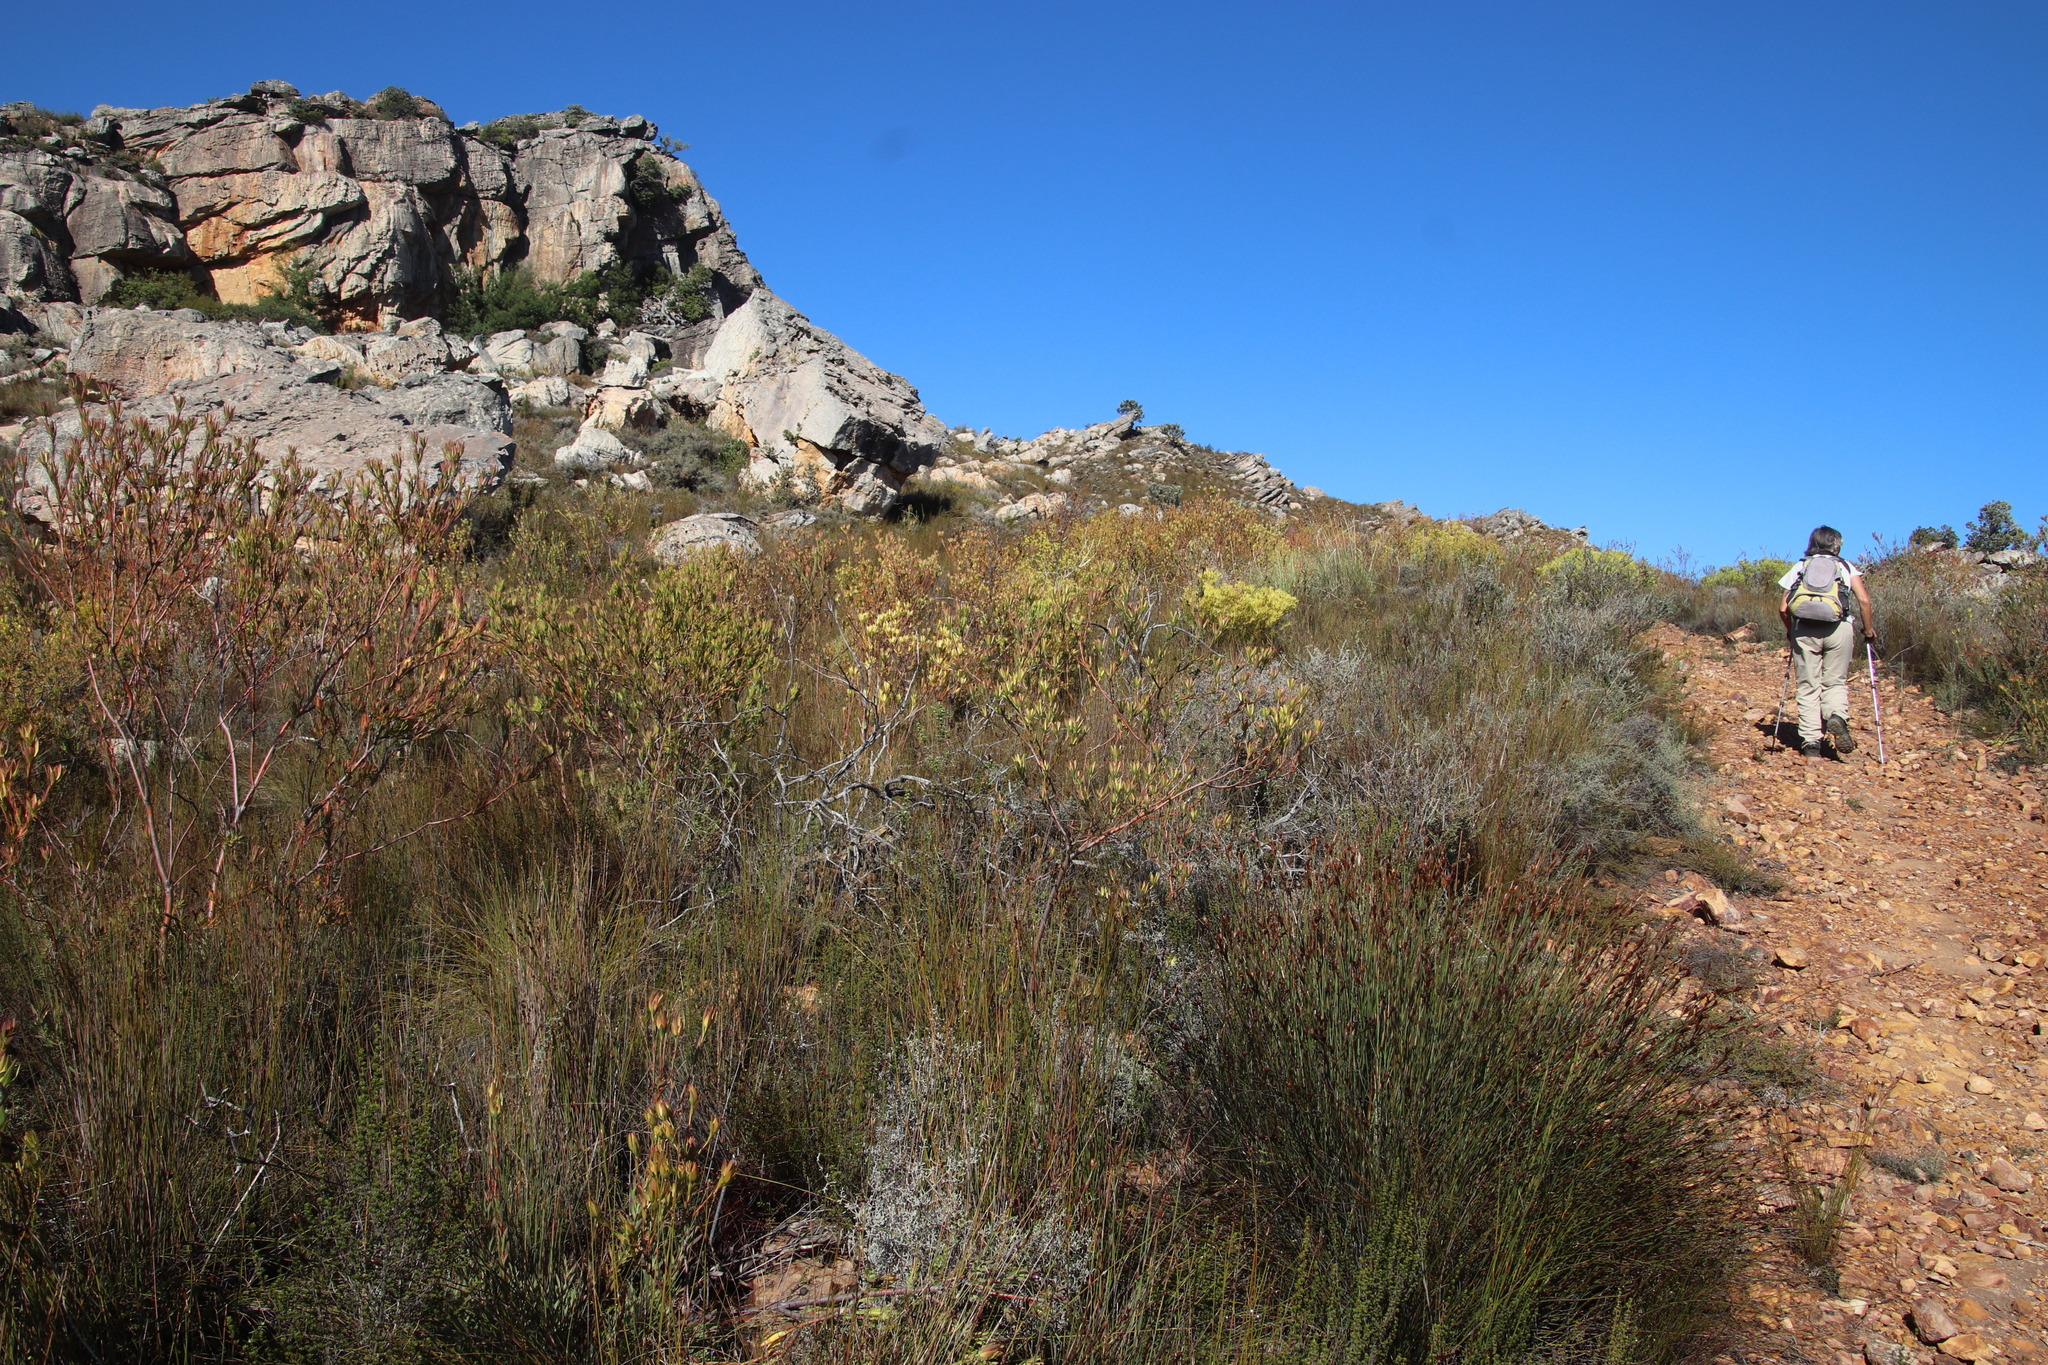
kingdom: Plantae
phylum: Tracheophyta
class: Magnoliopsida
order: Proteales
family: Proteaceae
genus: Leucadendron
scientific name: Leucadendron diemontianum
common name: Visgat conebush
